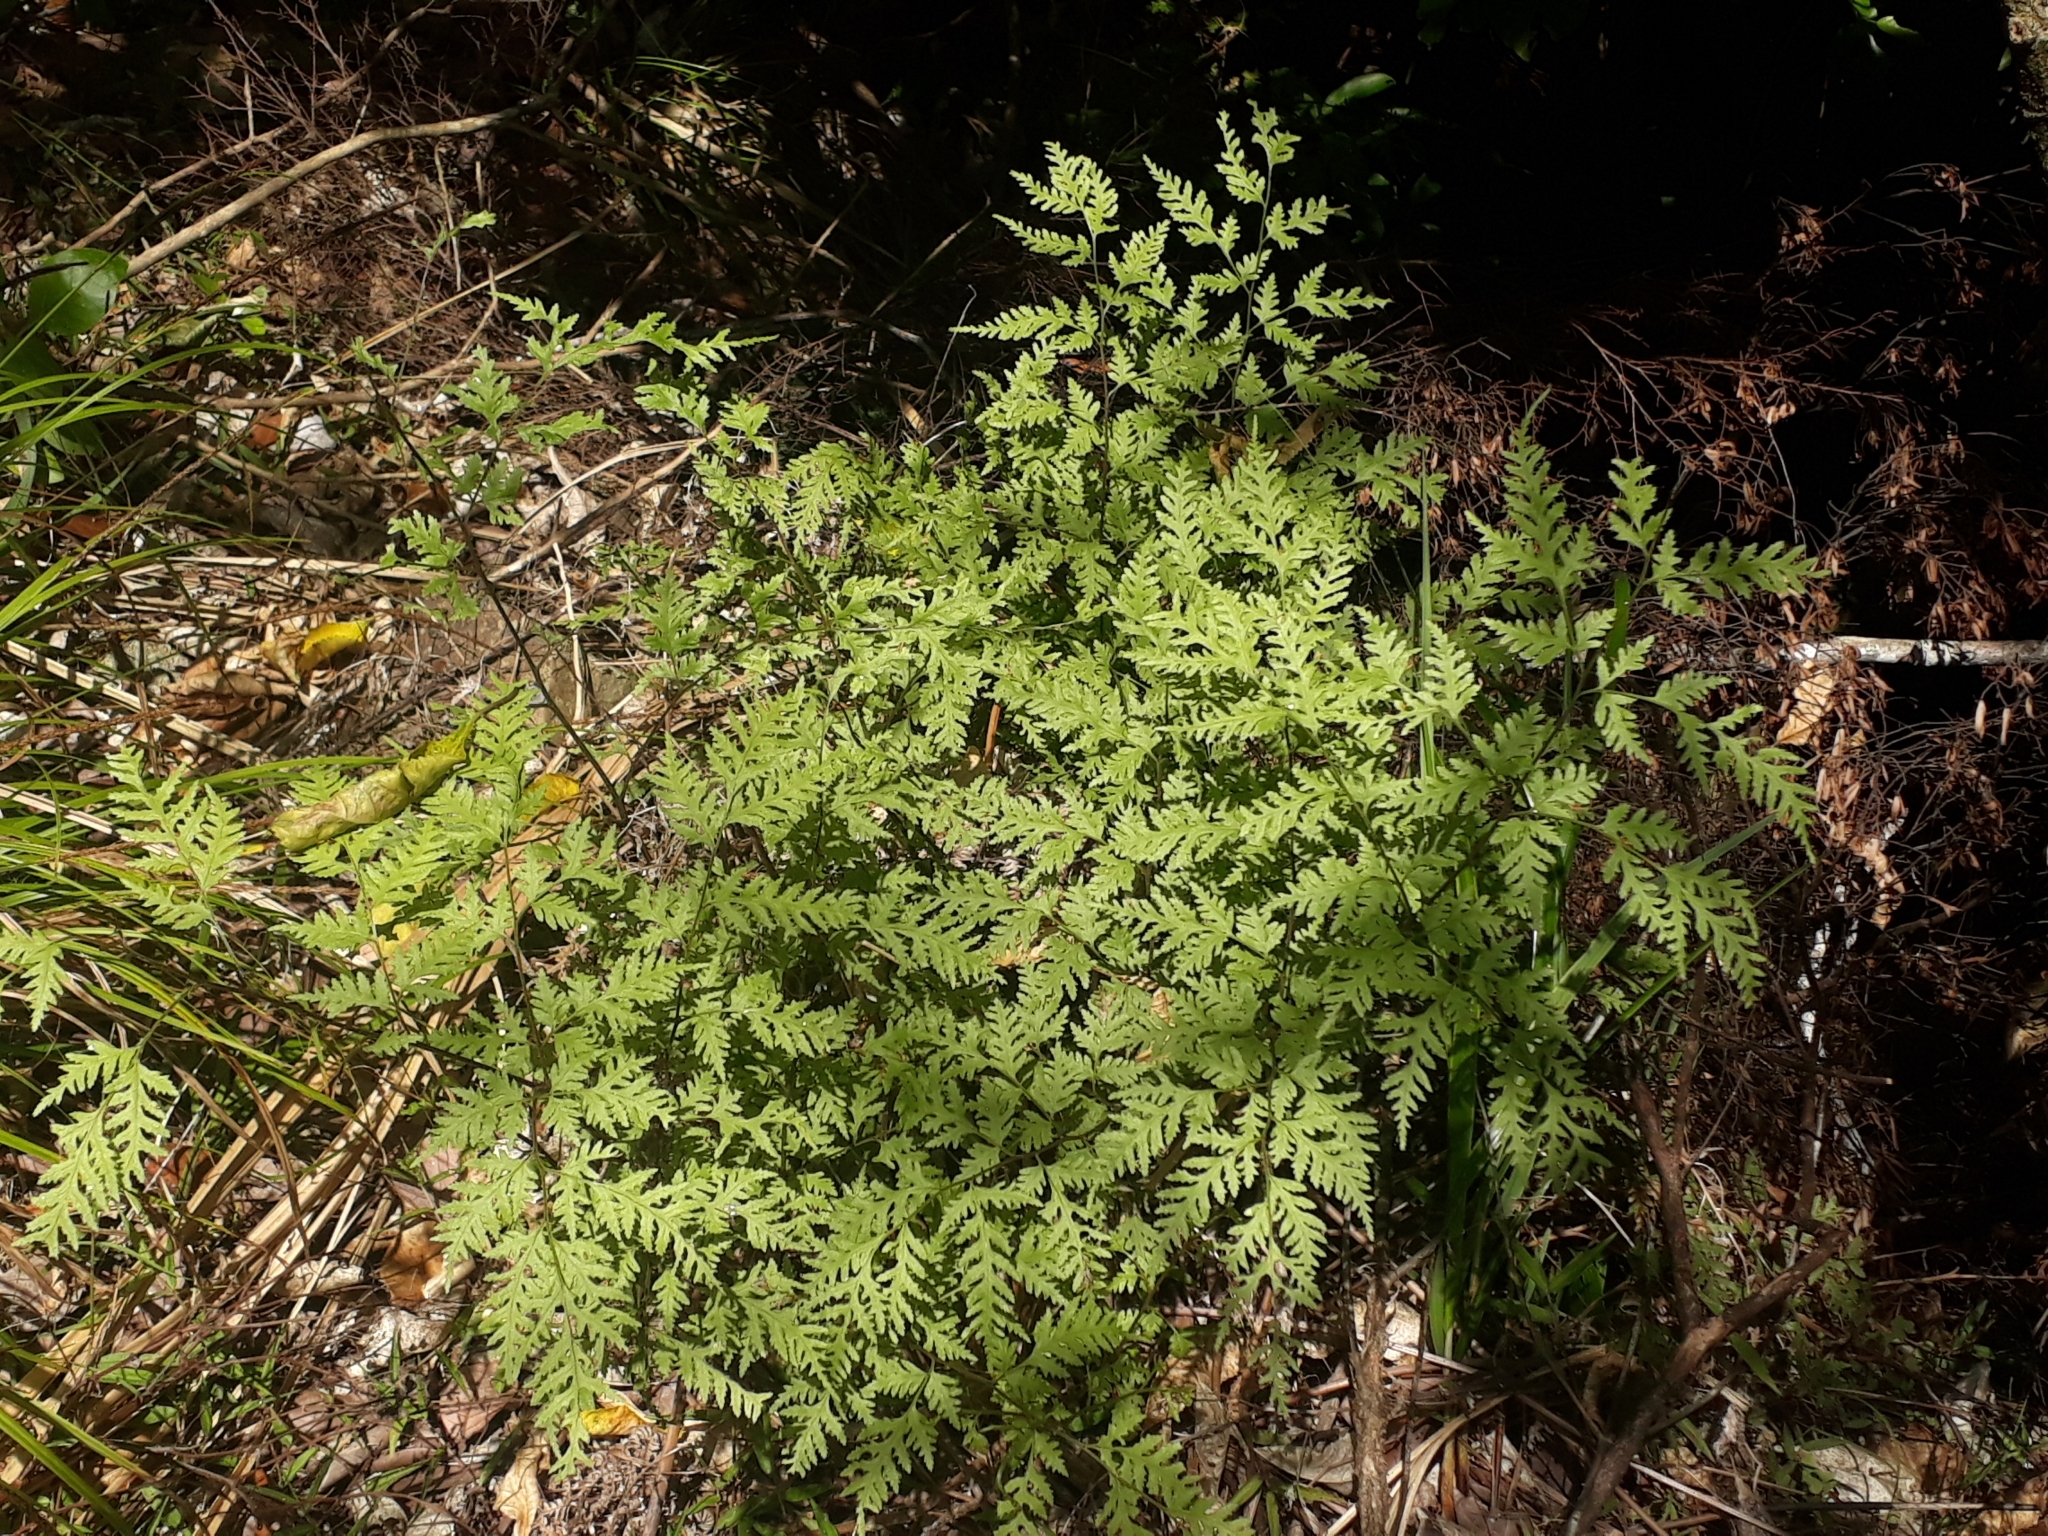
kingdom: Plantae
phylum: Tracheophyta
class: Polypodiopsida
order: Polypodiales
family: Pteridaceae
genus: Pteris
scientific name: Pteris macilenta
